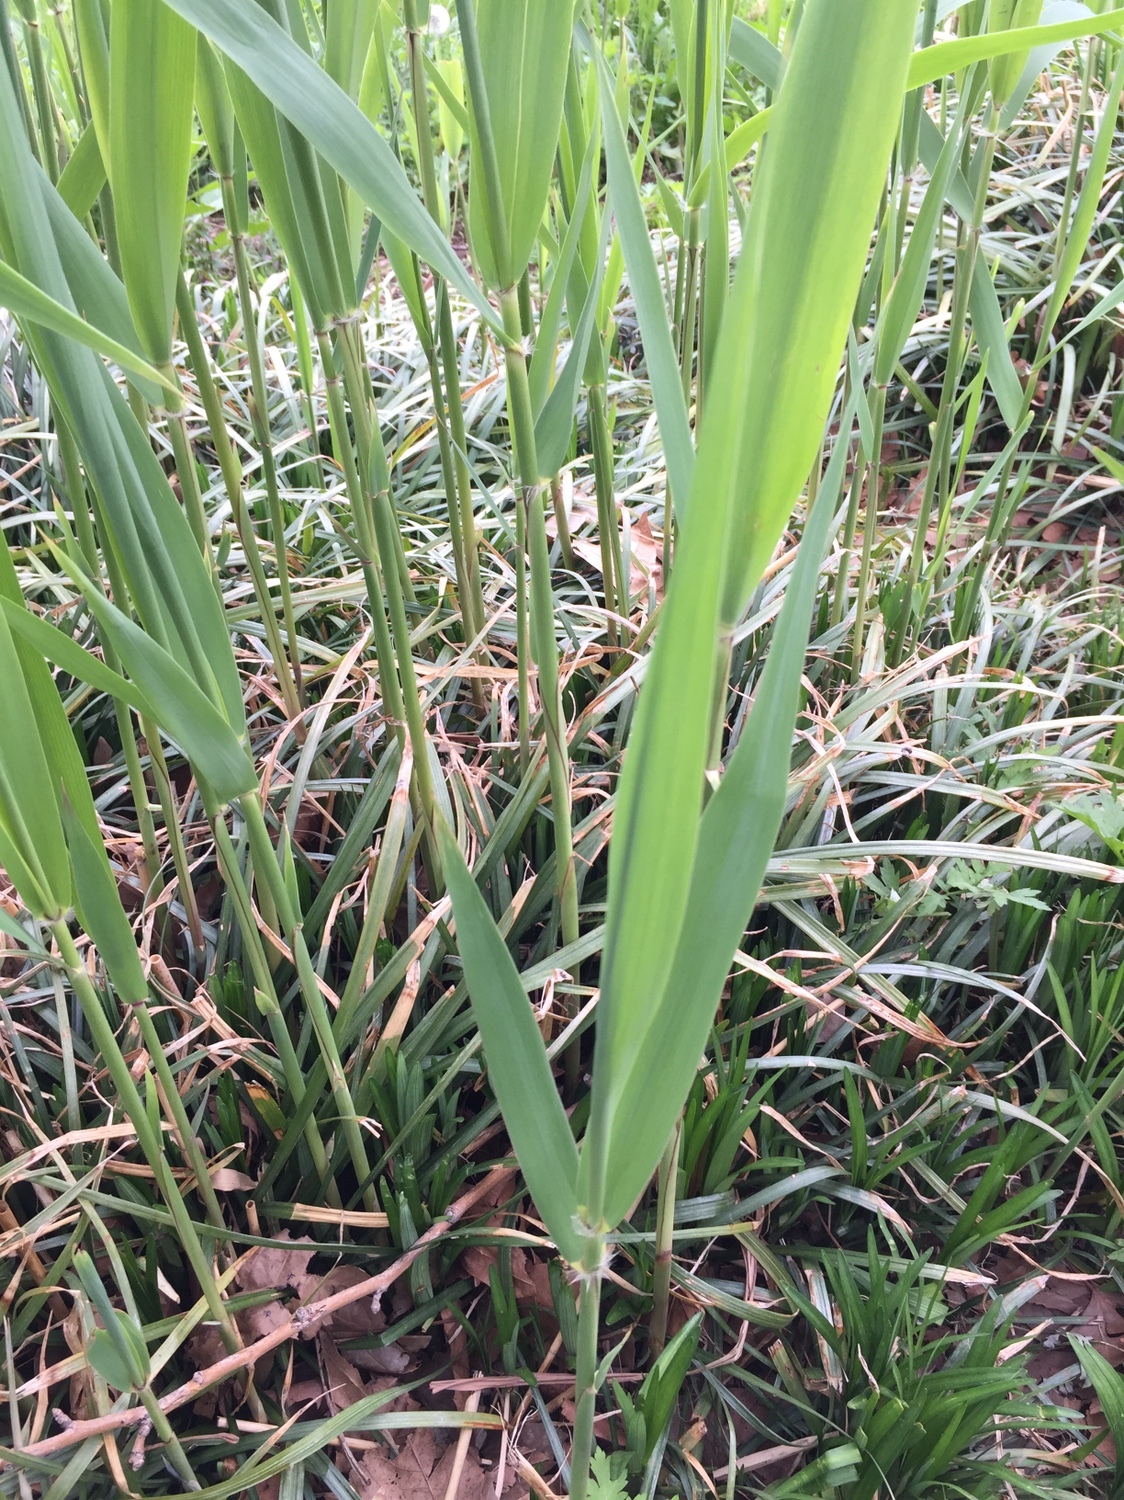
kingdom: Plantae
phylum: Tracheophyta
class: Liliopsida
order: Poales
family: Poaceae
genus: Phragmites
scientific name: Phragmites australis
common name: Common reed
